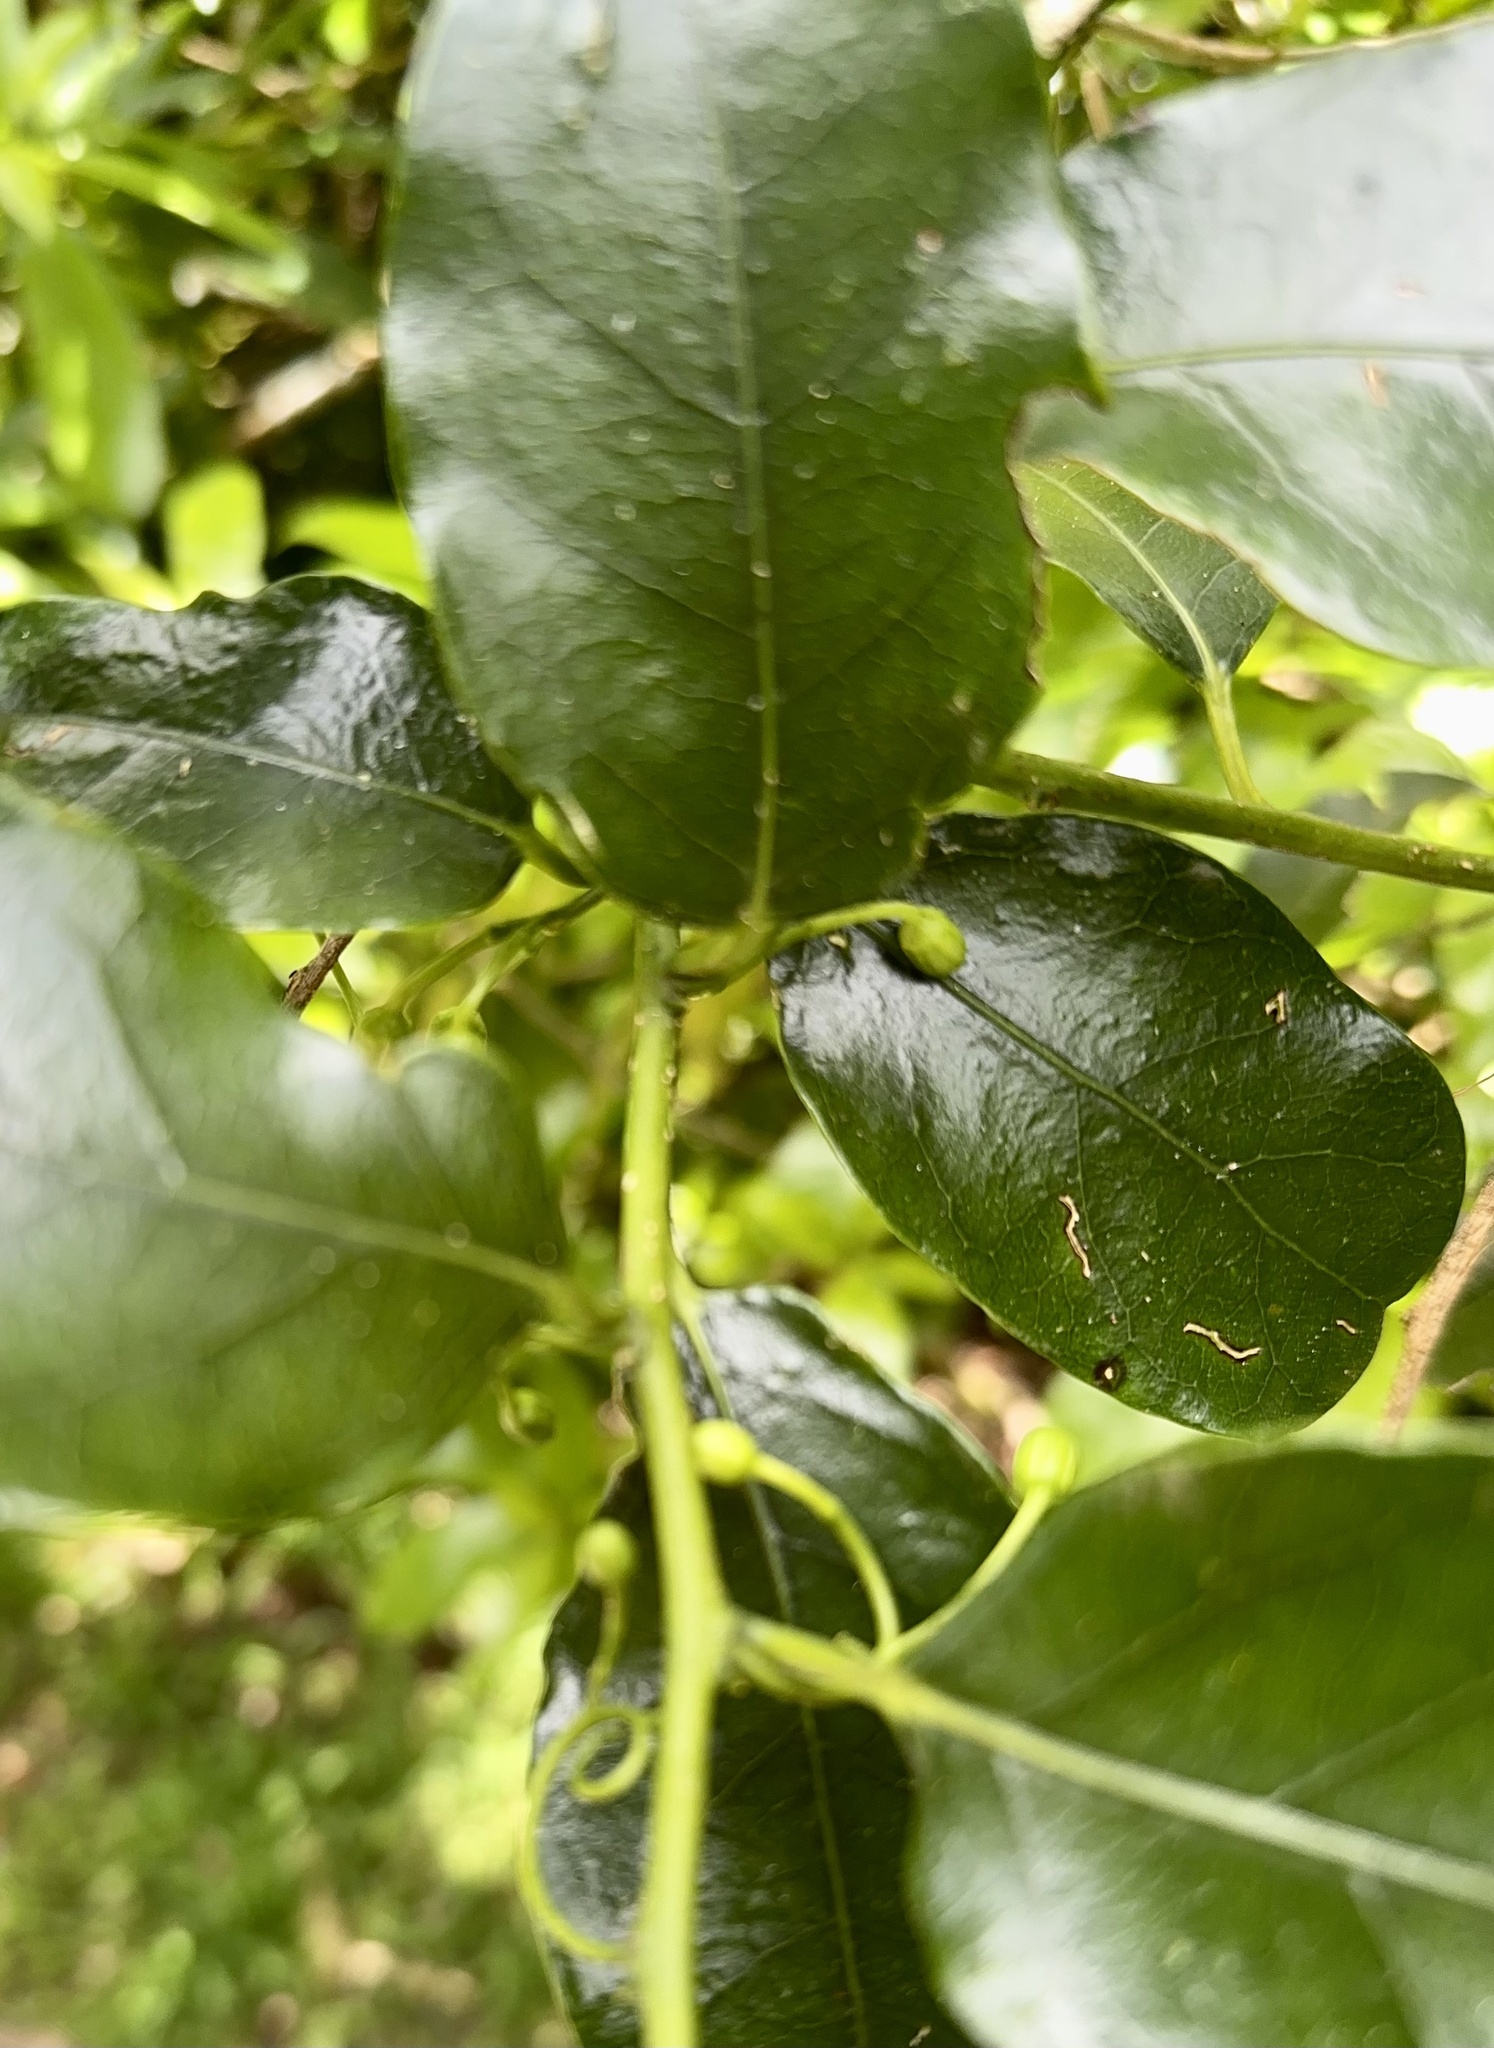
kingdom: Plantae
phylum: Tracheophyta
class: Magnoliopsida
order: Malpighiales
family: Passifloraceae
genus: Passiflora
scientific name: Passiflora tetrandra
